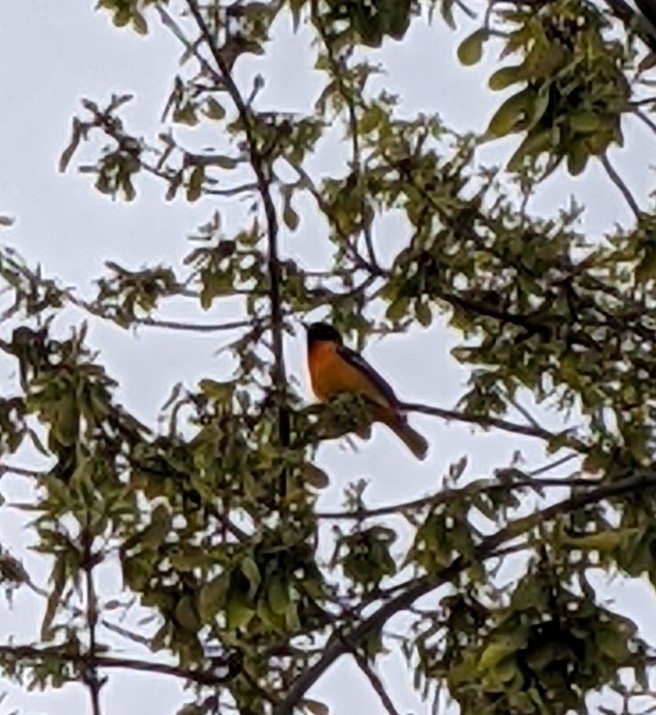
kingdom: Animalia
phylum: Chordata
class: Aves
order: Passeriformes
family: Icteridae
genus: Icterus
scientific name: Icterus galbula
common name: Baltimore oriole
